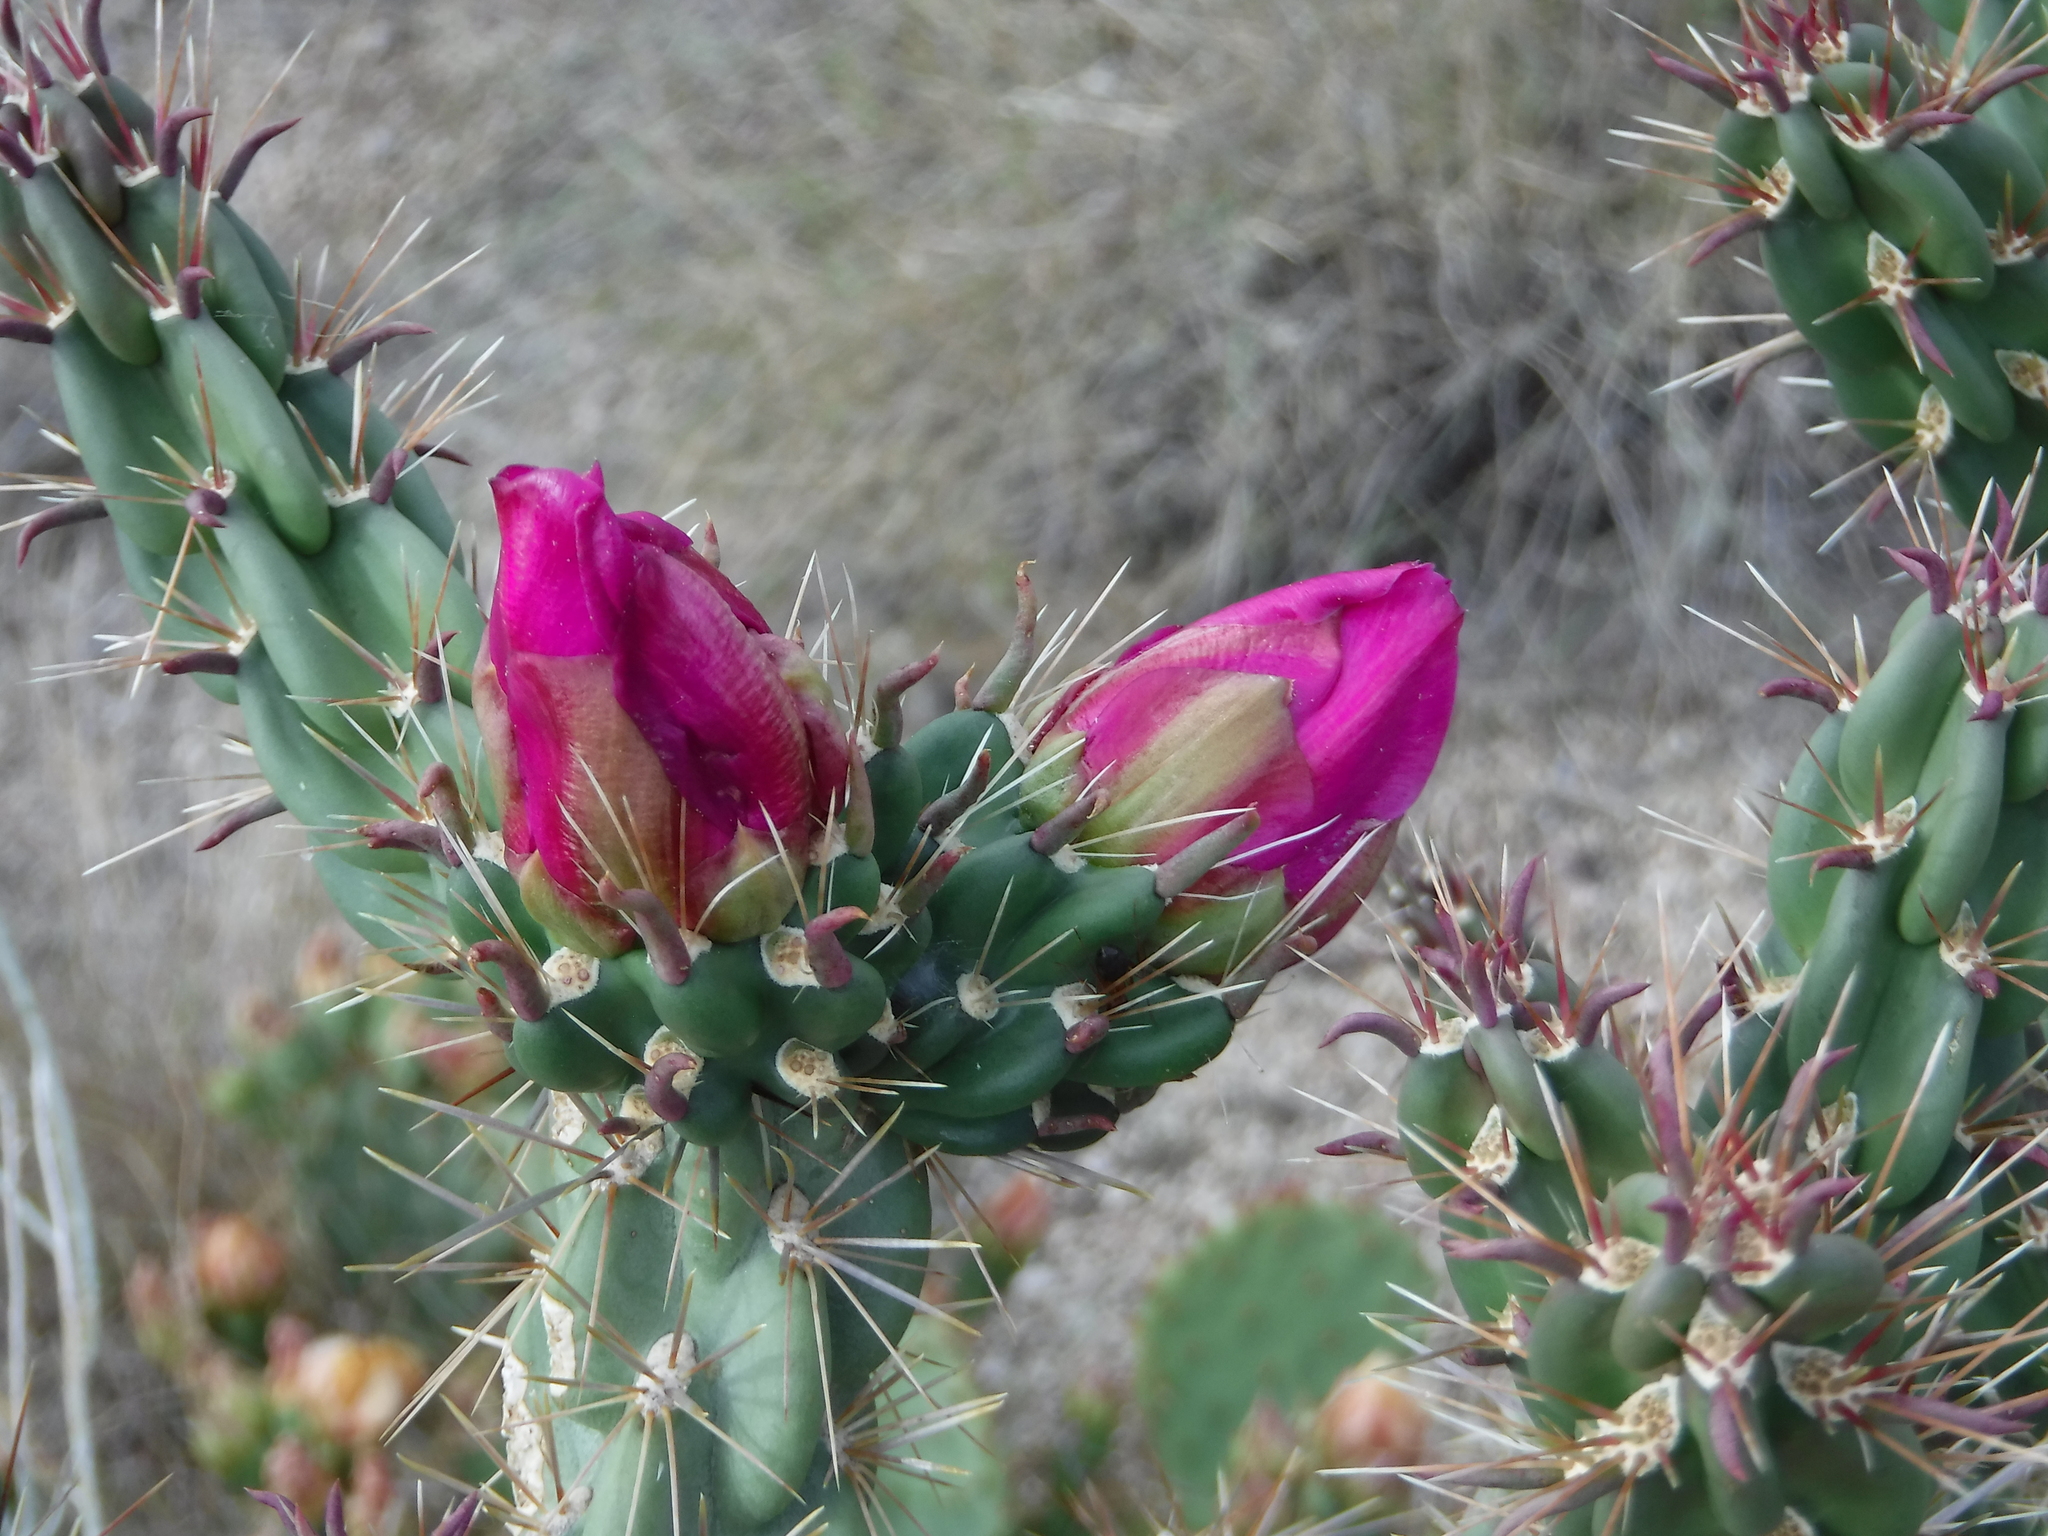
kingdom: Plantae
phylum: Tracheophyta
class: Magnoliopsida
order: Caryophyllales
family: Cactaceae
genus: Cylindropuntia
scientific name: Cylindropuntia imbricata
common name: Candelabrum cactus
